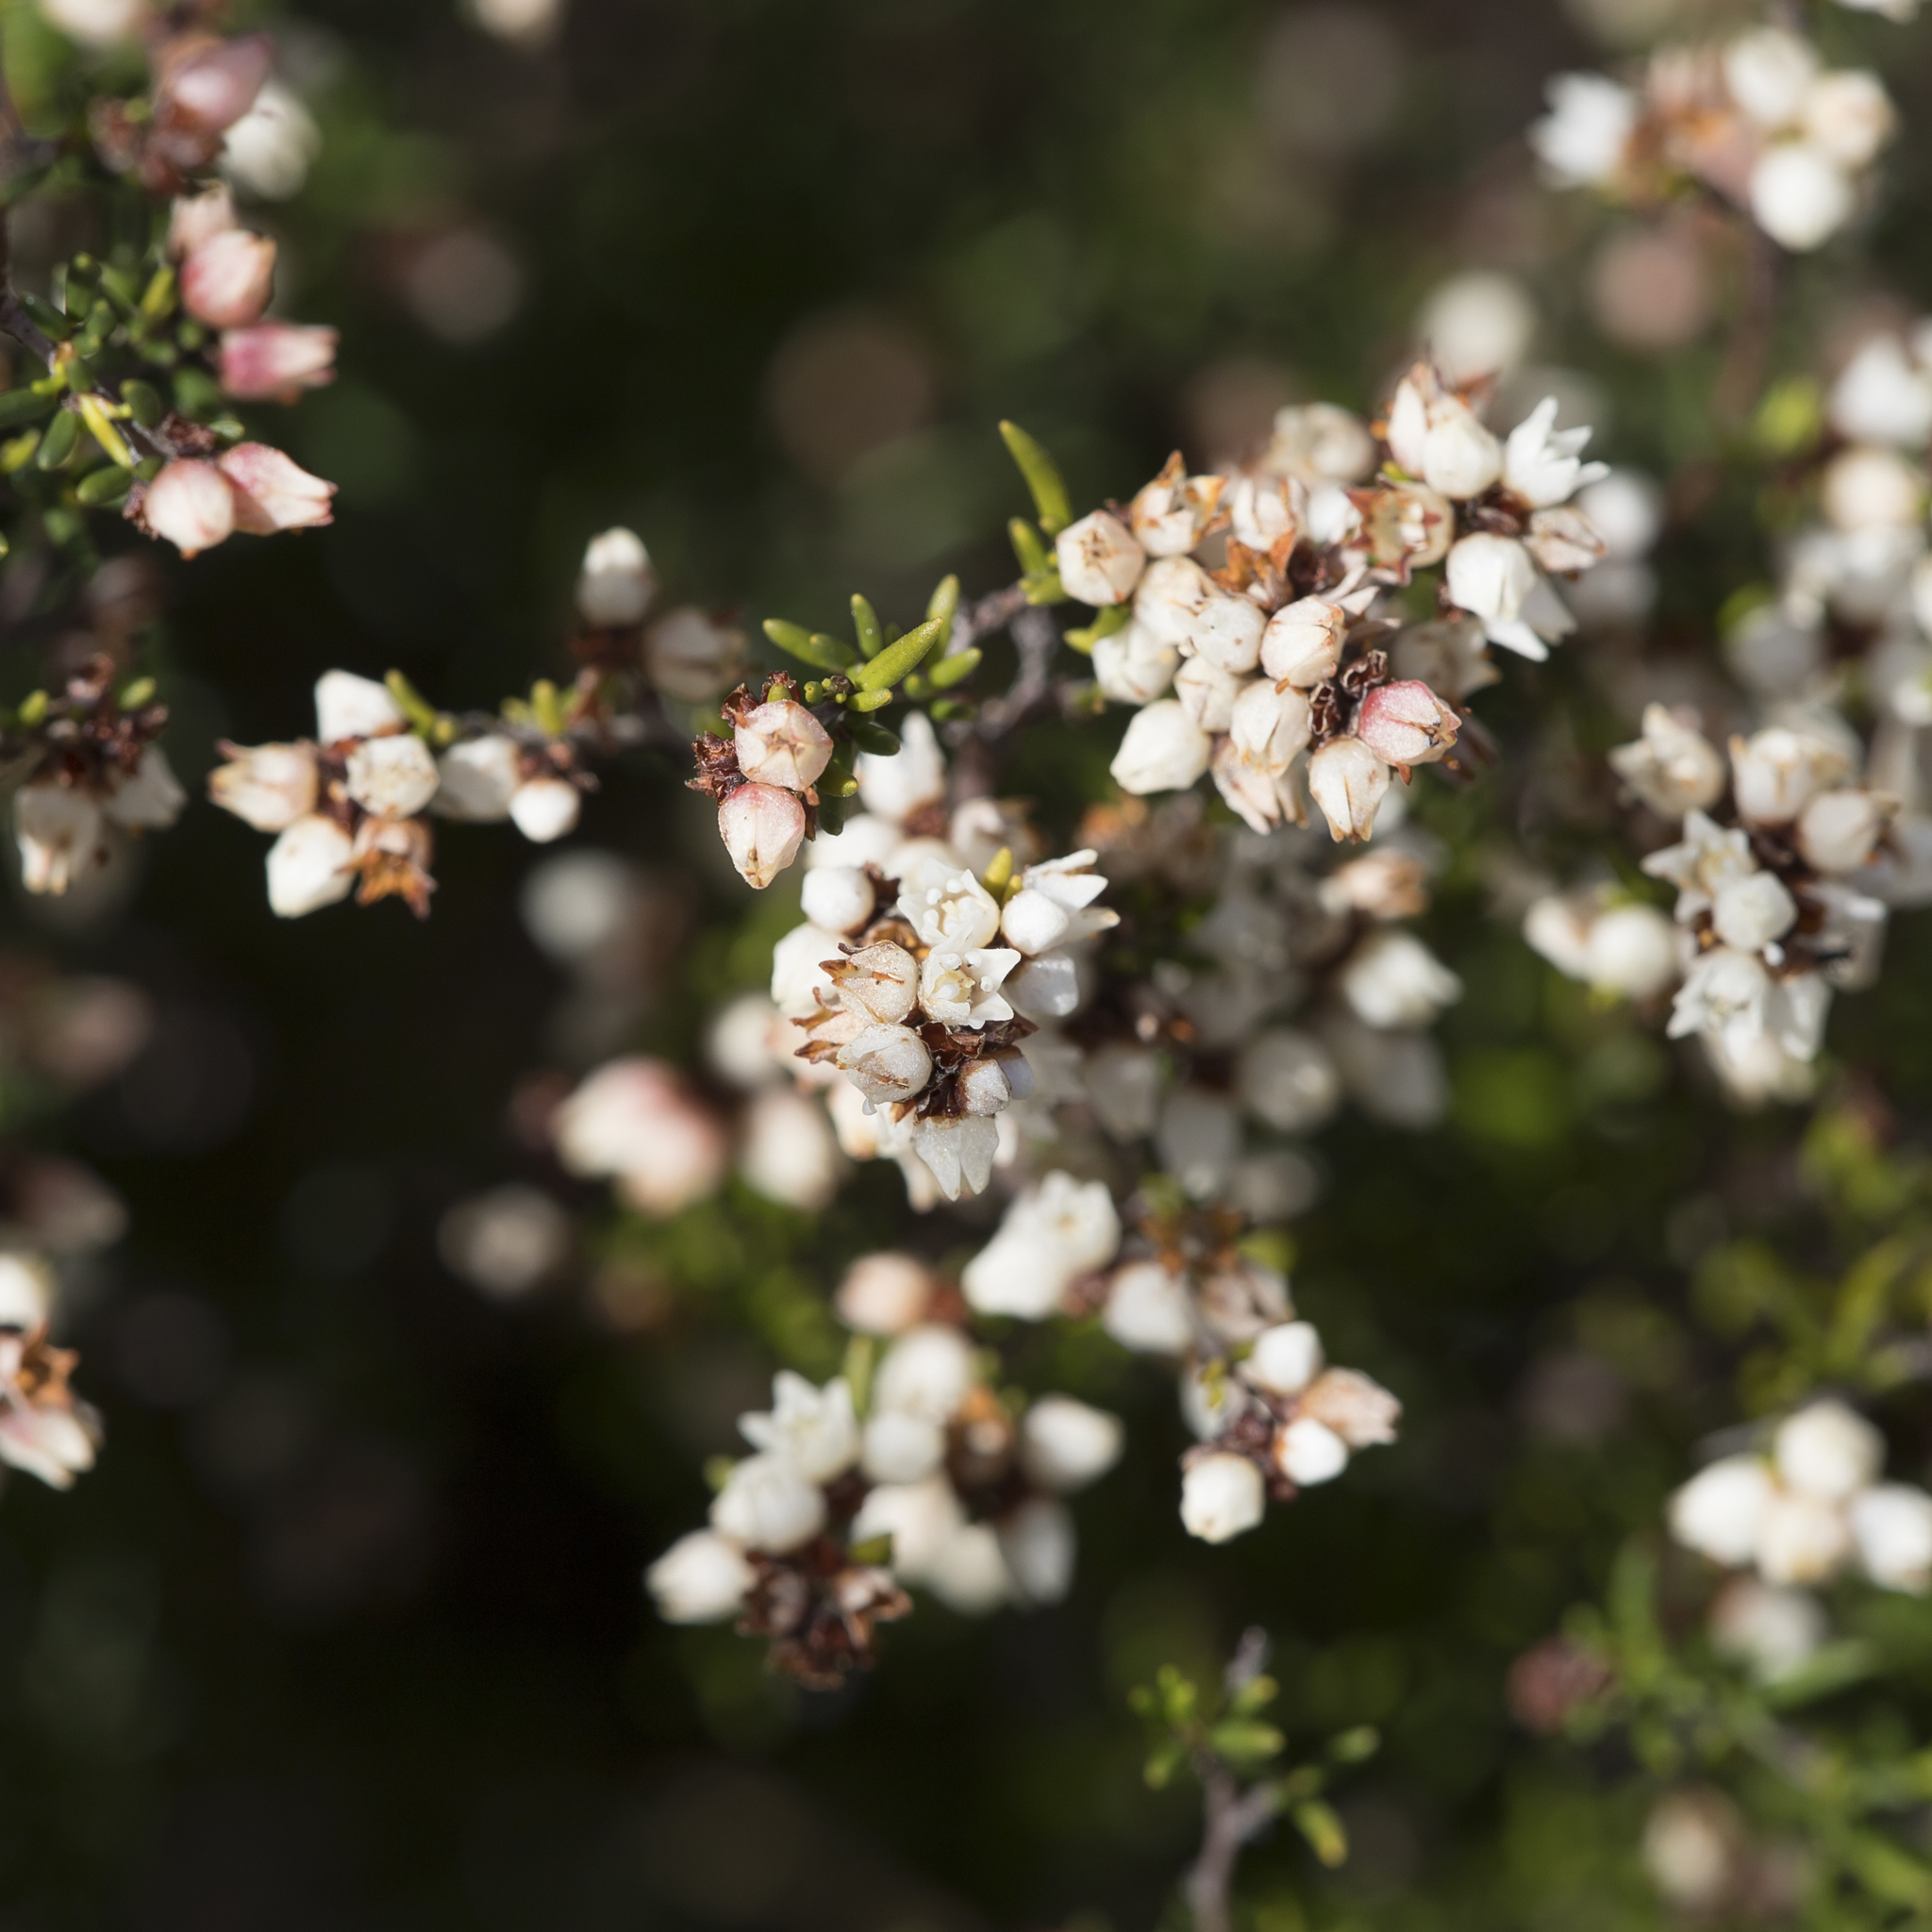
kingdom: Plantae
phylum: Tracheophyta
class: Magnoliopsida
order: Rosales
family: Rhamnaceae
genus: Cryptandra
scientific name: Cryptandra tomentosa
